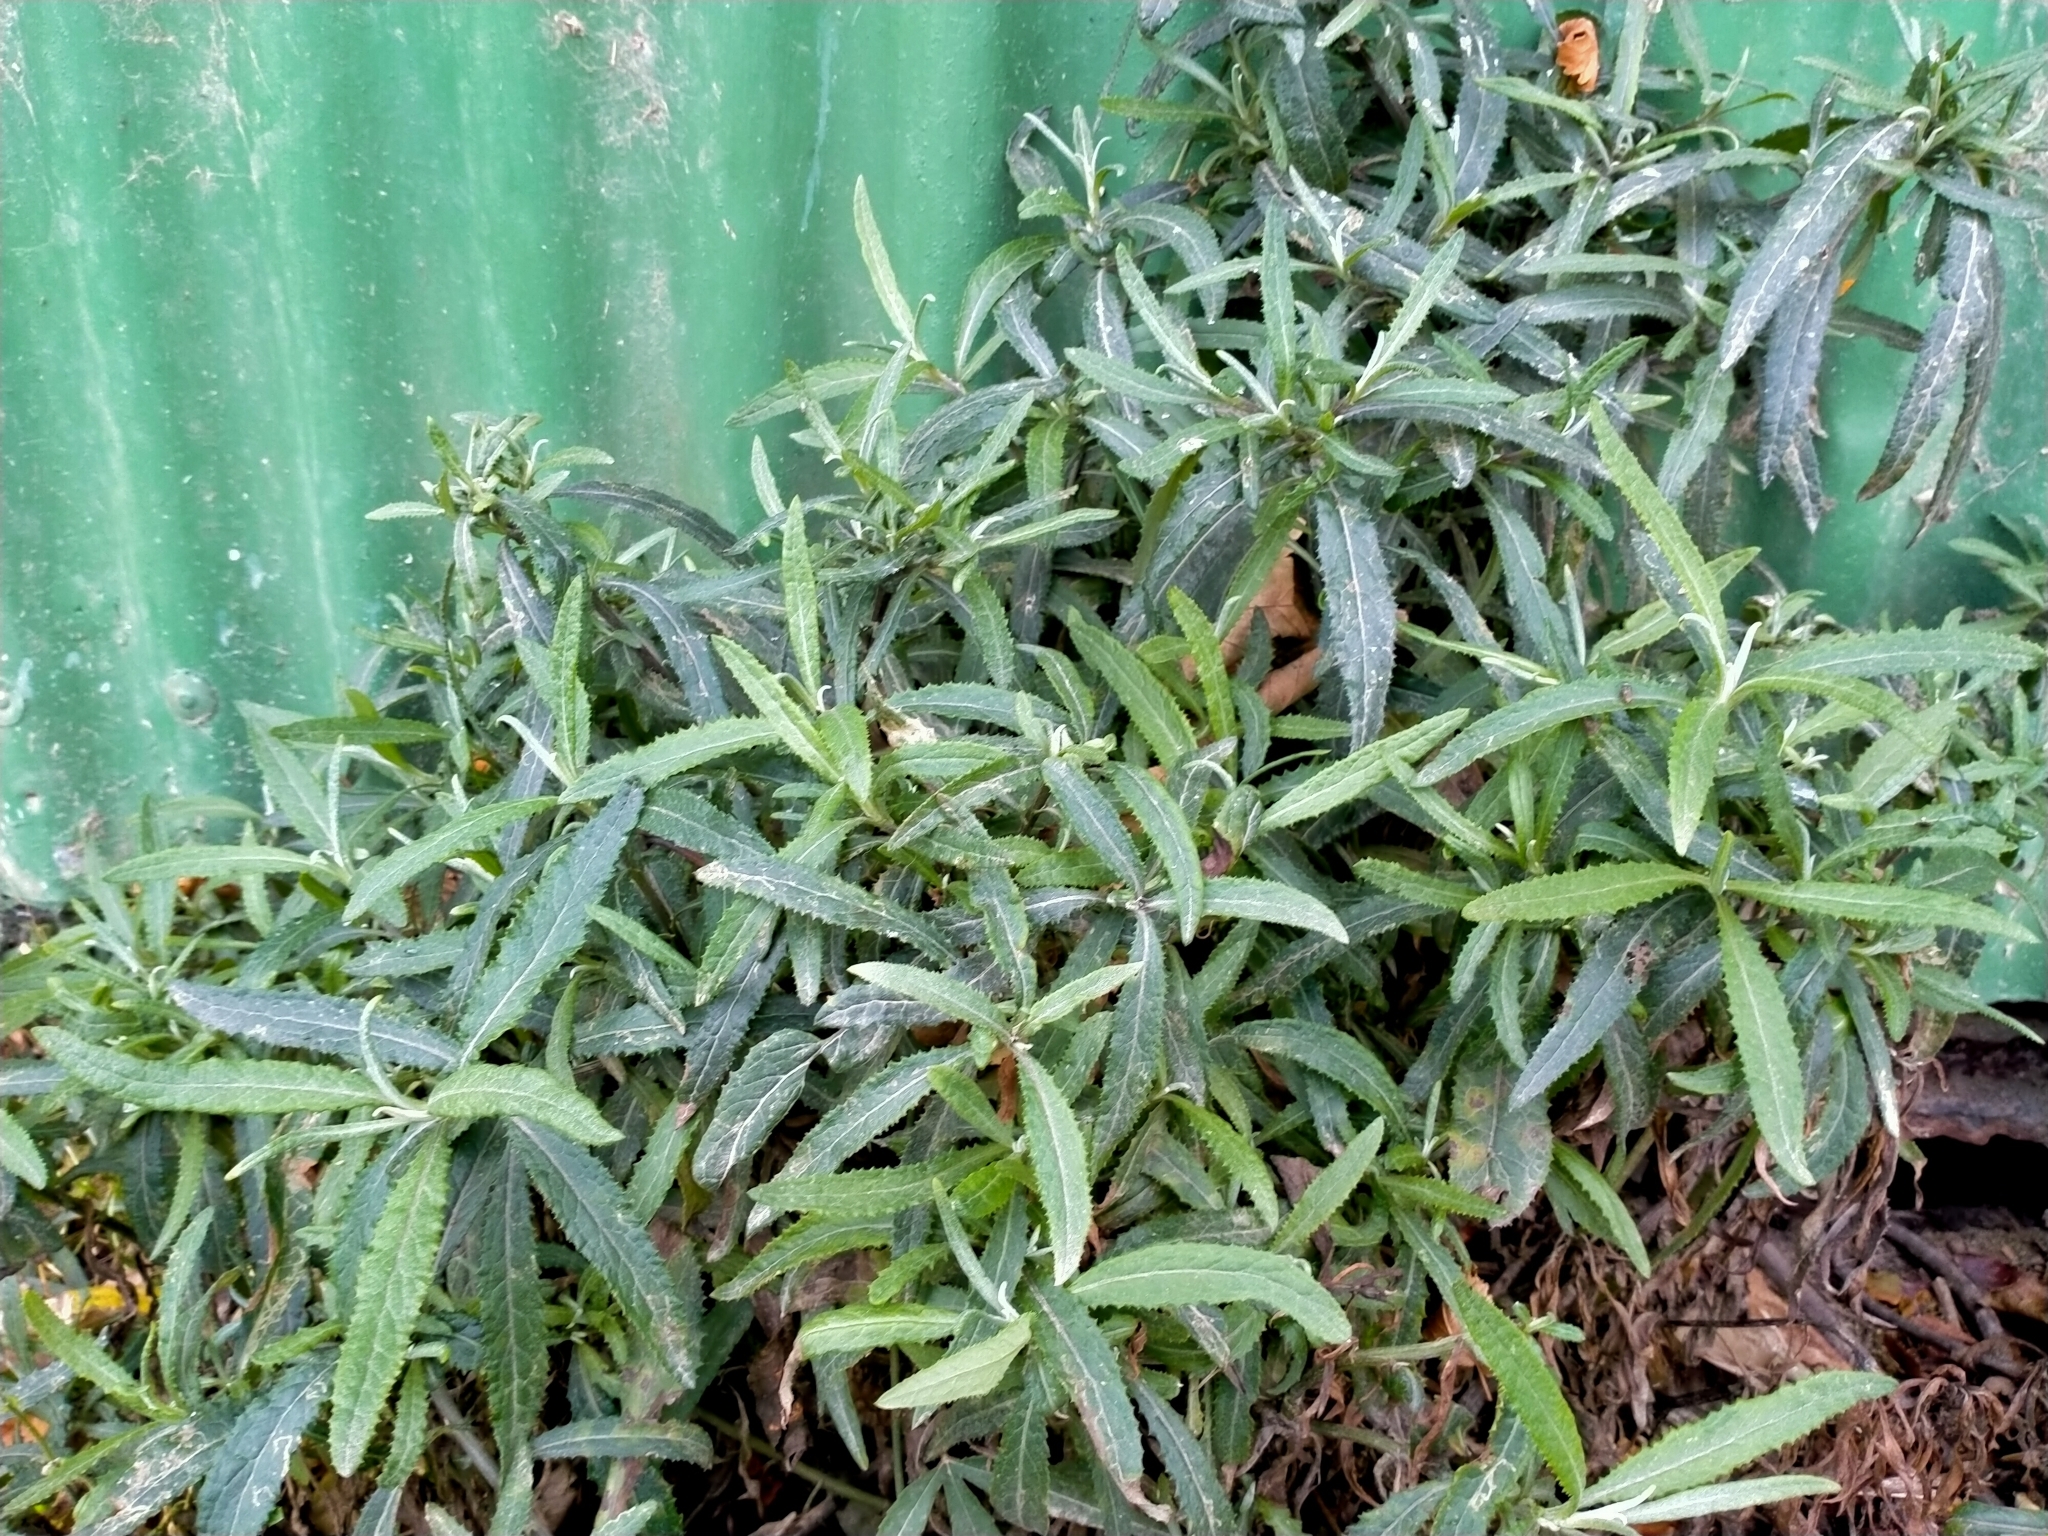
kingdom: Plantae
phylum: Tracheophyta
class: Magnoliopsida
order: Asterales
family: Asteraceae
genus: Senecio
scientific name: Senecio minimus
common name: Toothed fireweed
